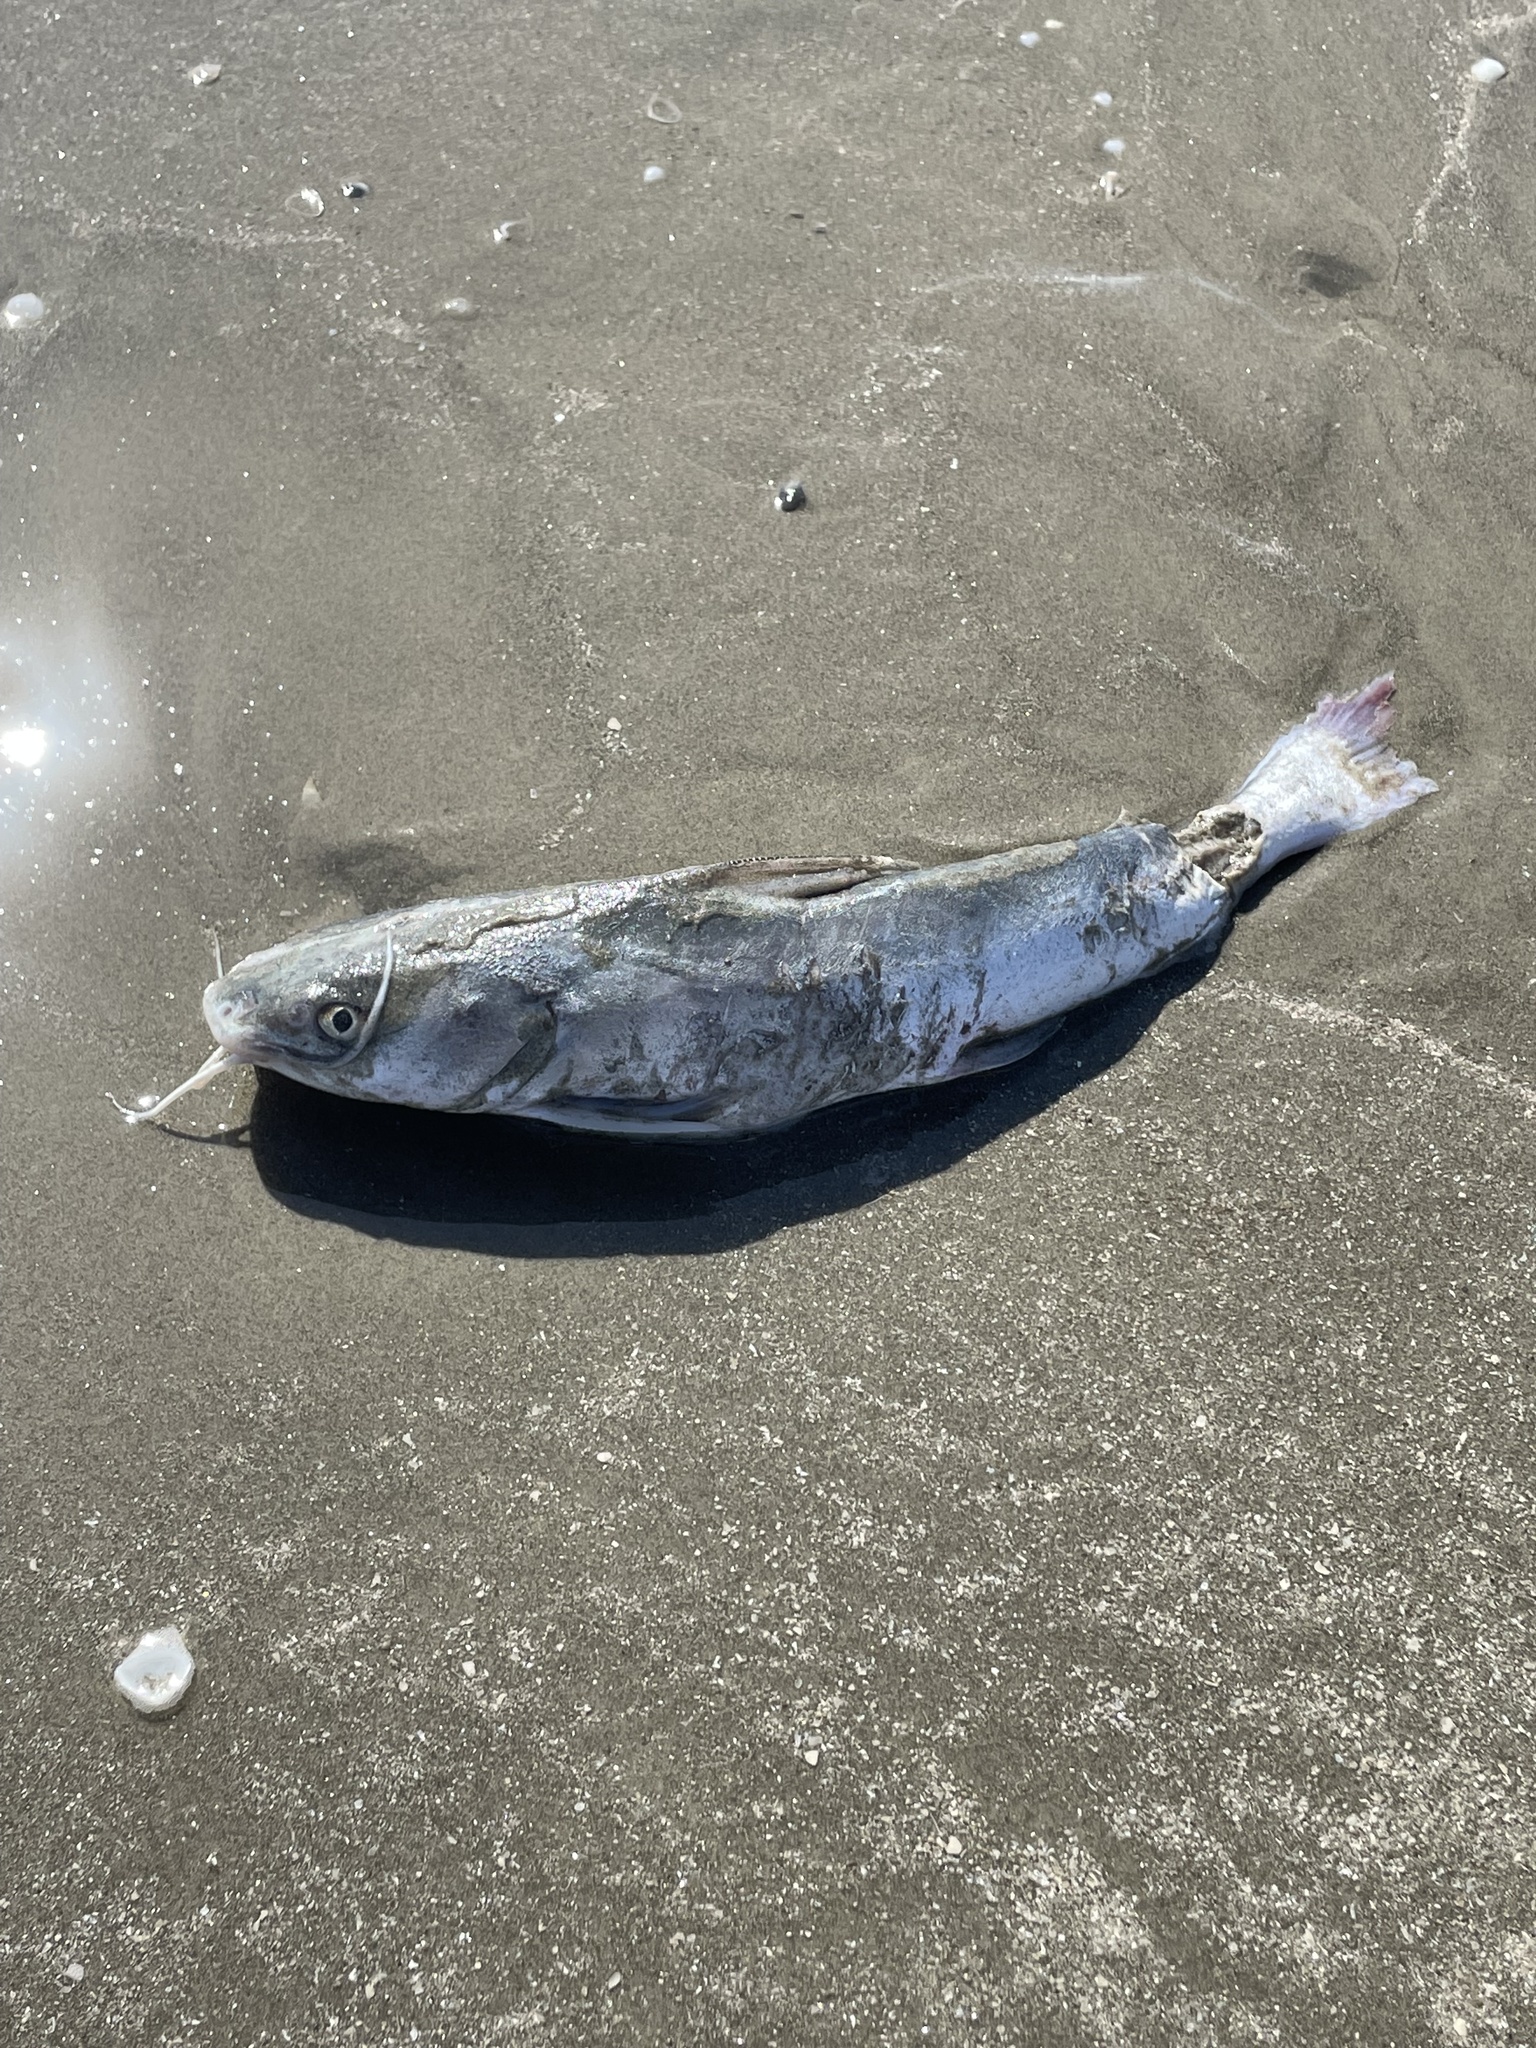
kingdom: Animalia
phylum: Chordata
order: Siluriformes
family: Ariidae
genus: Ariopsis
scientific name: Ariopsis felis
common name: Hardhead catfish
